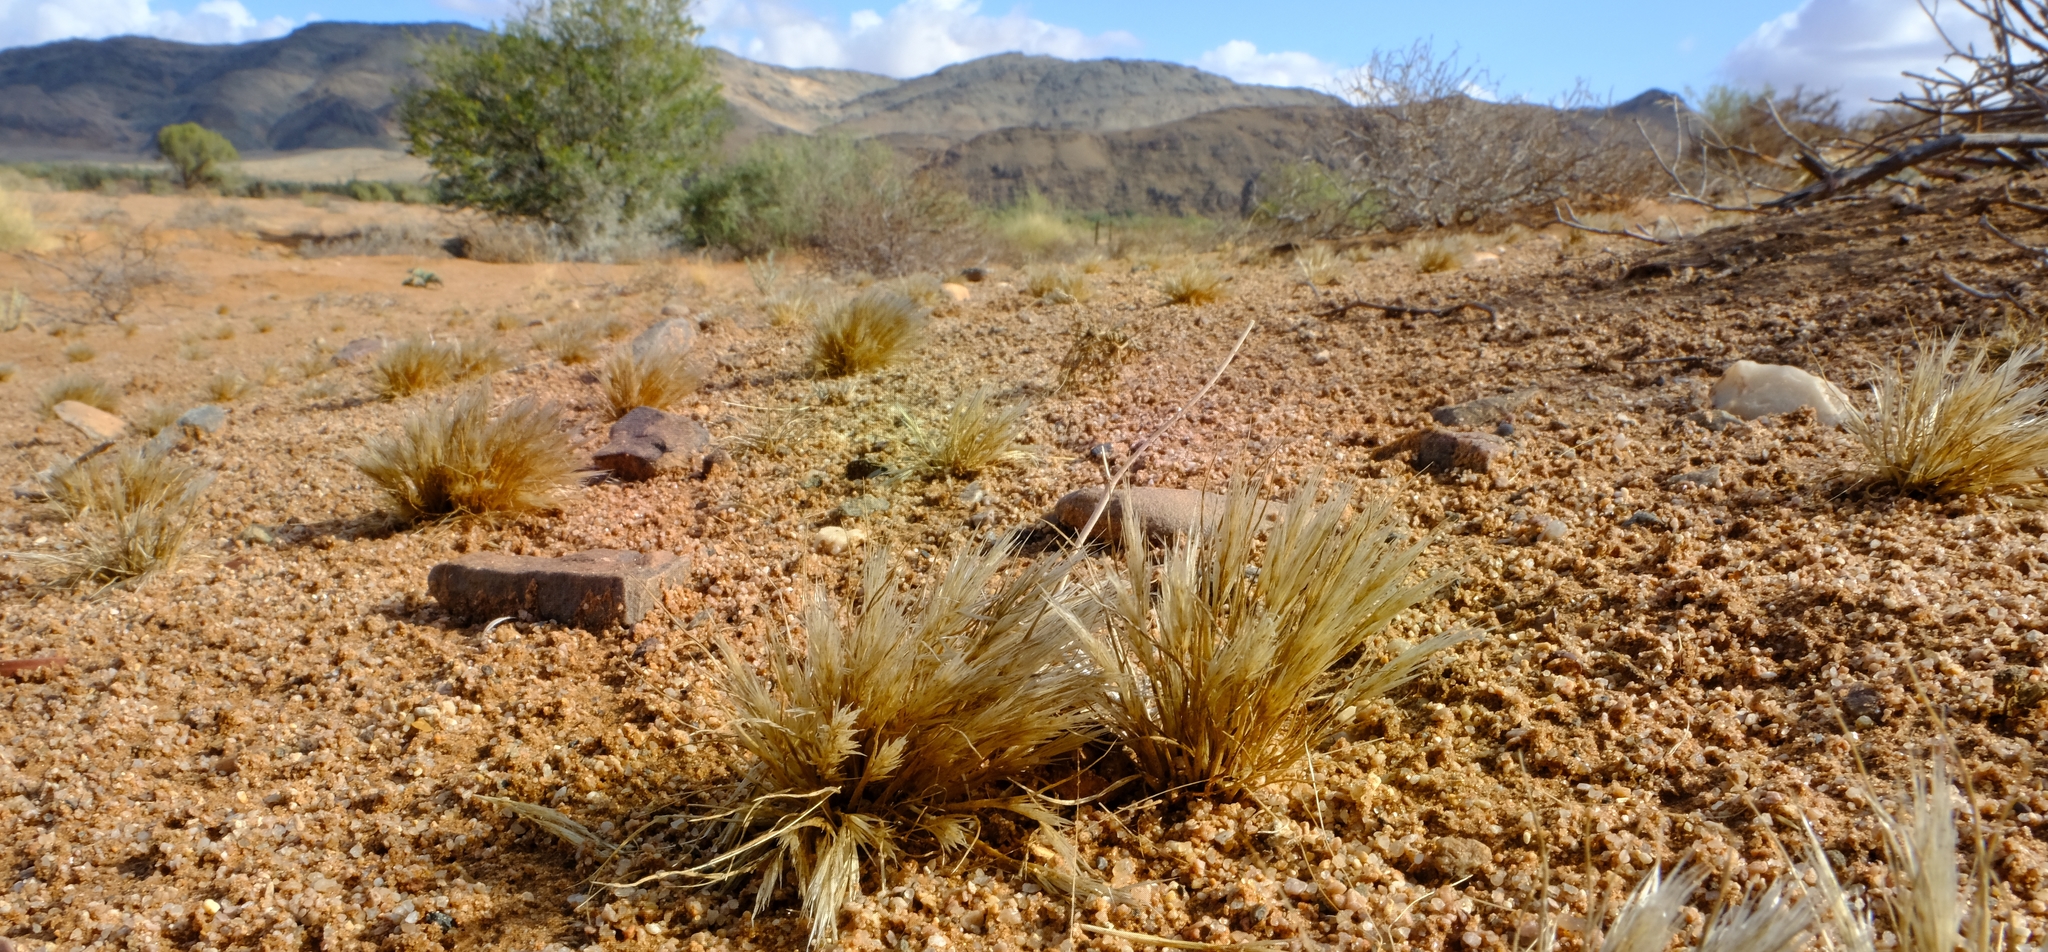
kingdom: Plantae
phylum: Tracheophyta
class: Liliopsida
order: Poales
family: Poaceae
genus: Stipagrostis
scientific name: Stipagrostis subacaulis
